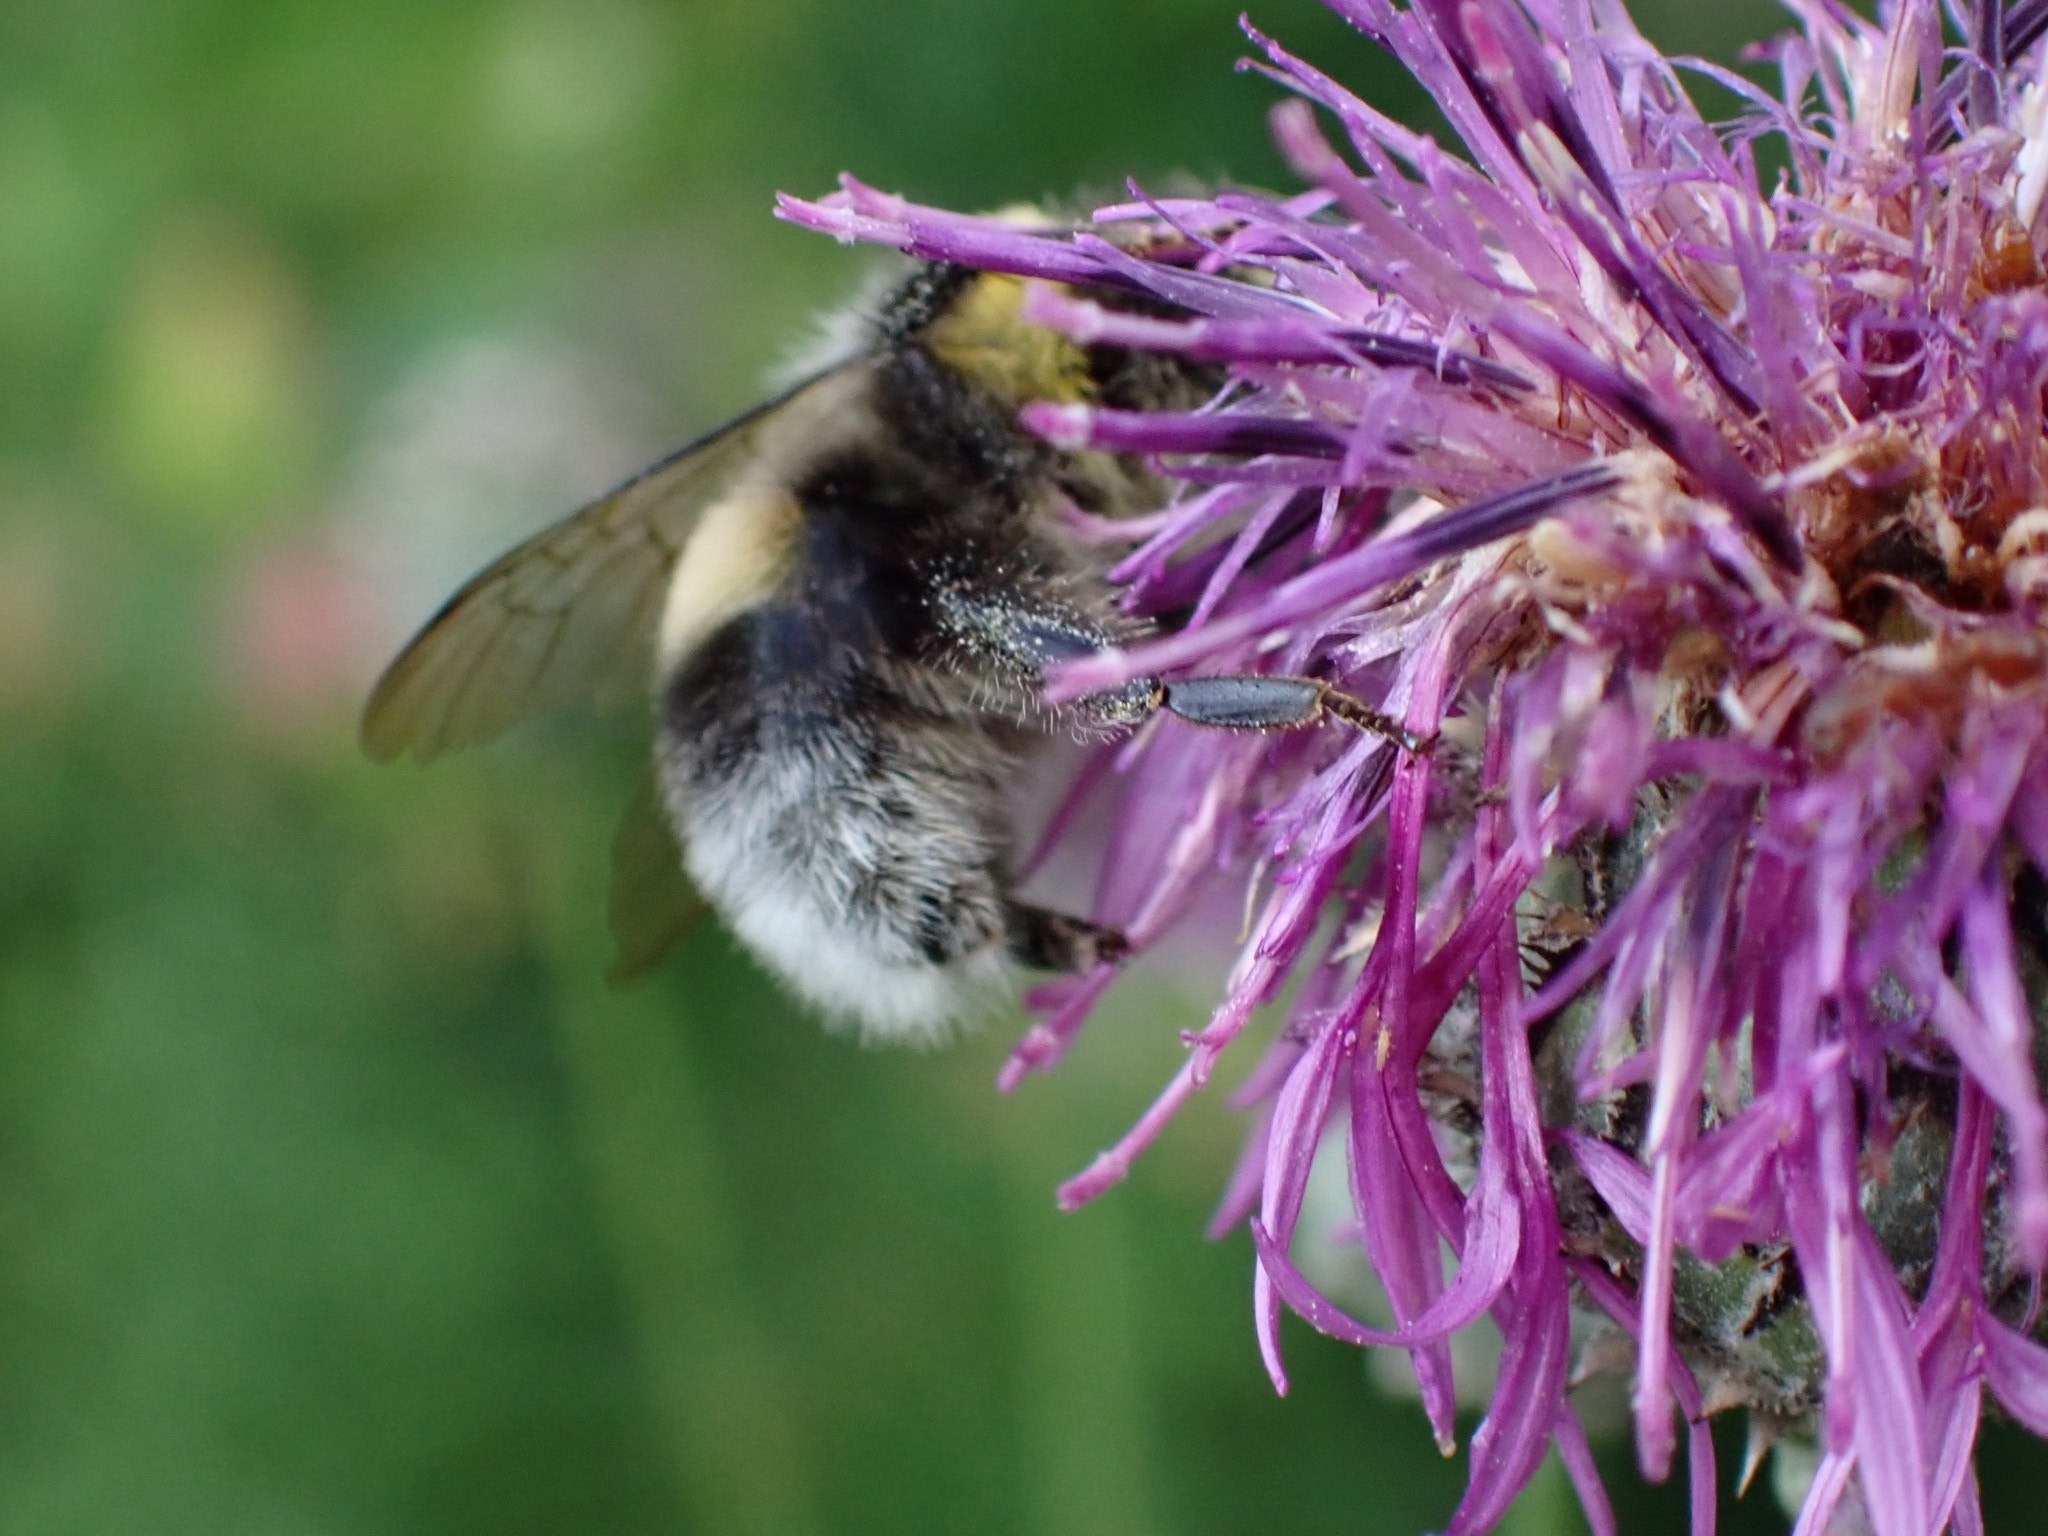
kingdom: Animalia
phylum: Arthropoda
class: Insecta
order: Hymenoptera
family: Apidae
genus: Bombus
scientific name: Bombus lucorum
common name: White-tailed bumblebee
